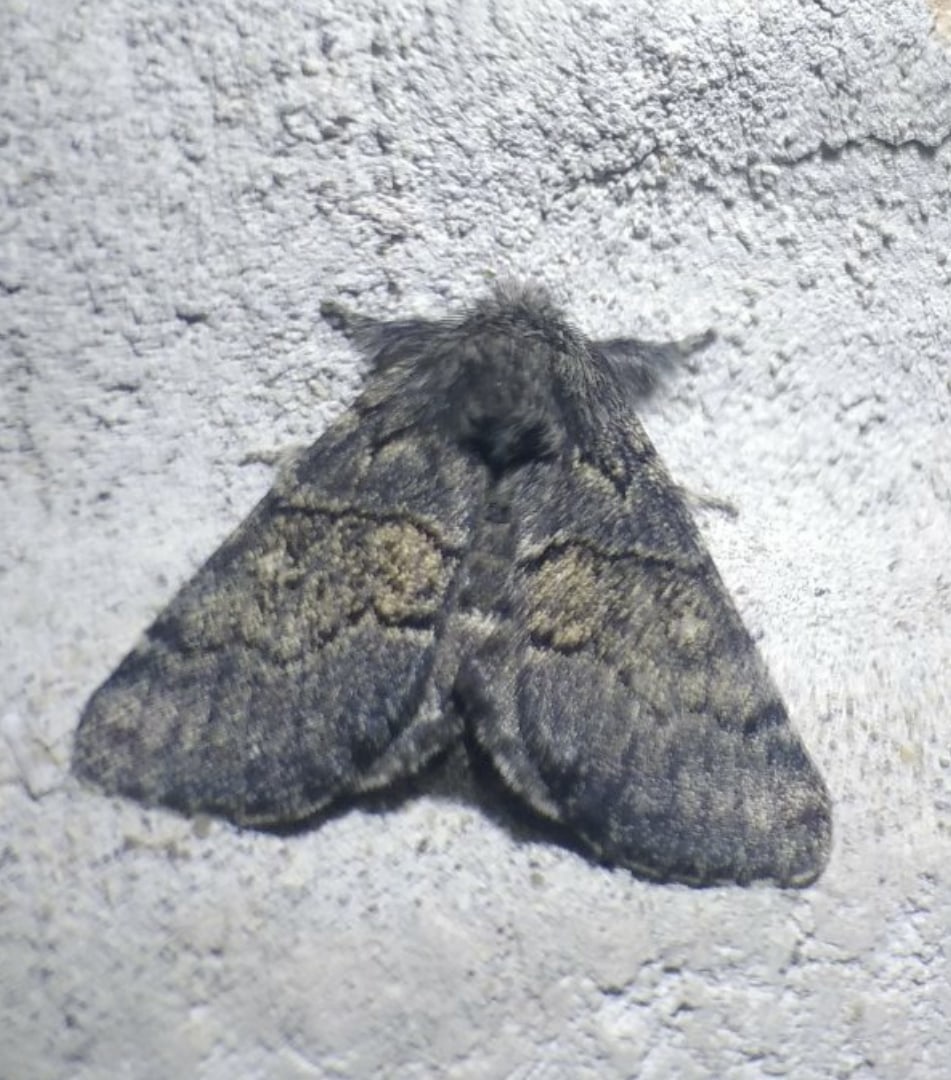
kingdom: Animalia
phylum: Arthropoda
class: Insecta
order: Lepidoptera
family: Notodontidae
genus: Gluphisia
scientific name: Gluphisia crenata
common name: Dusky marbled brown
